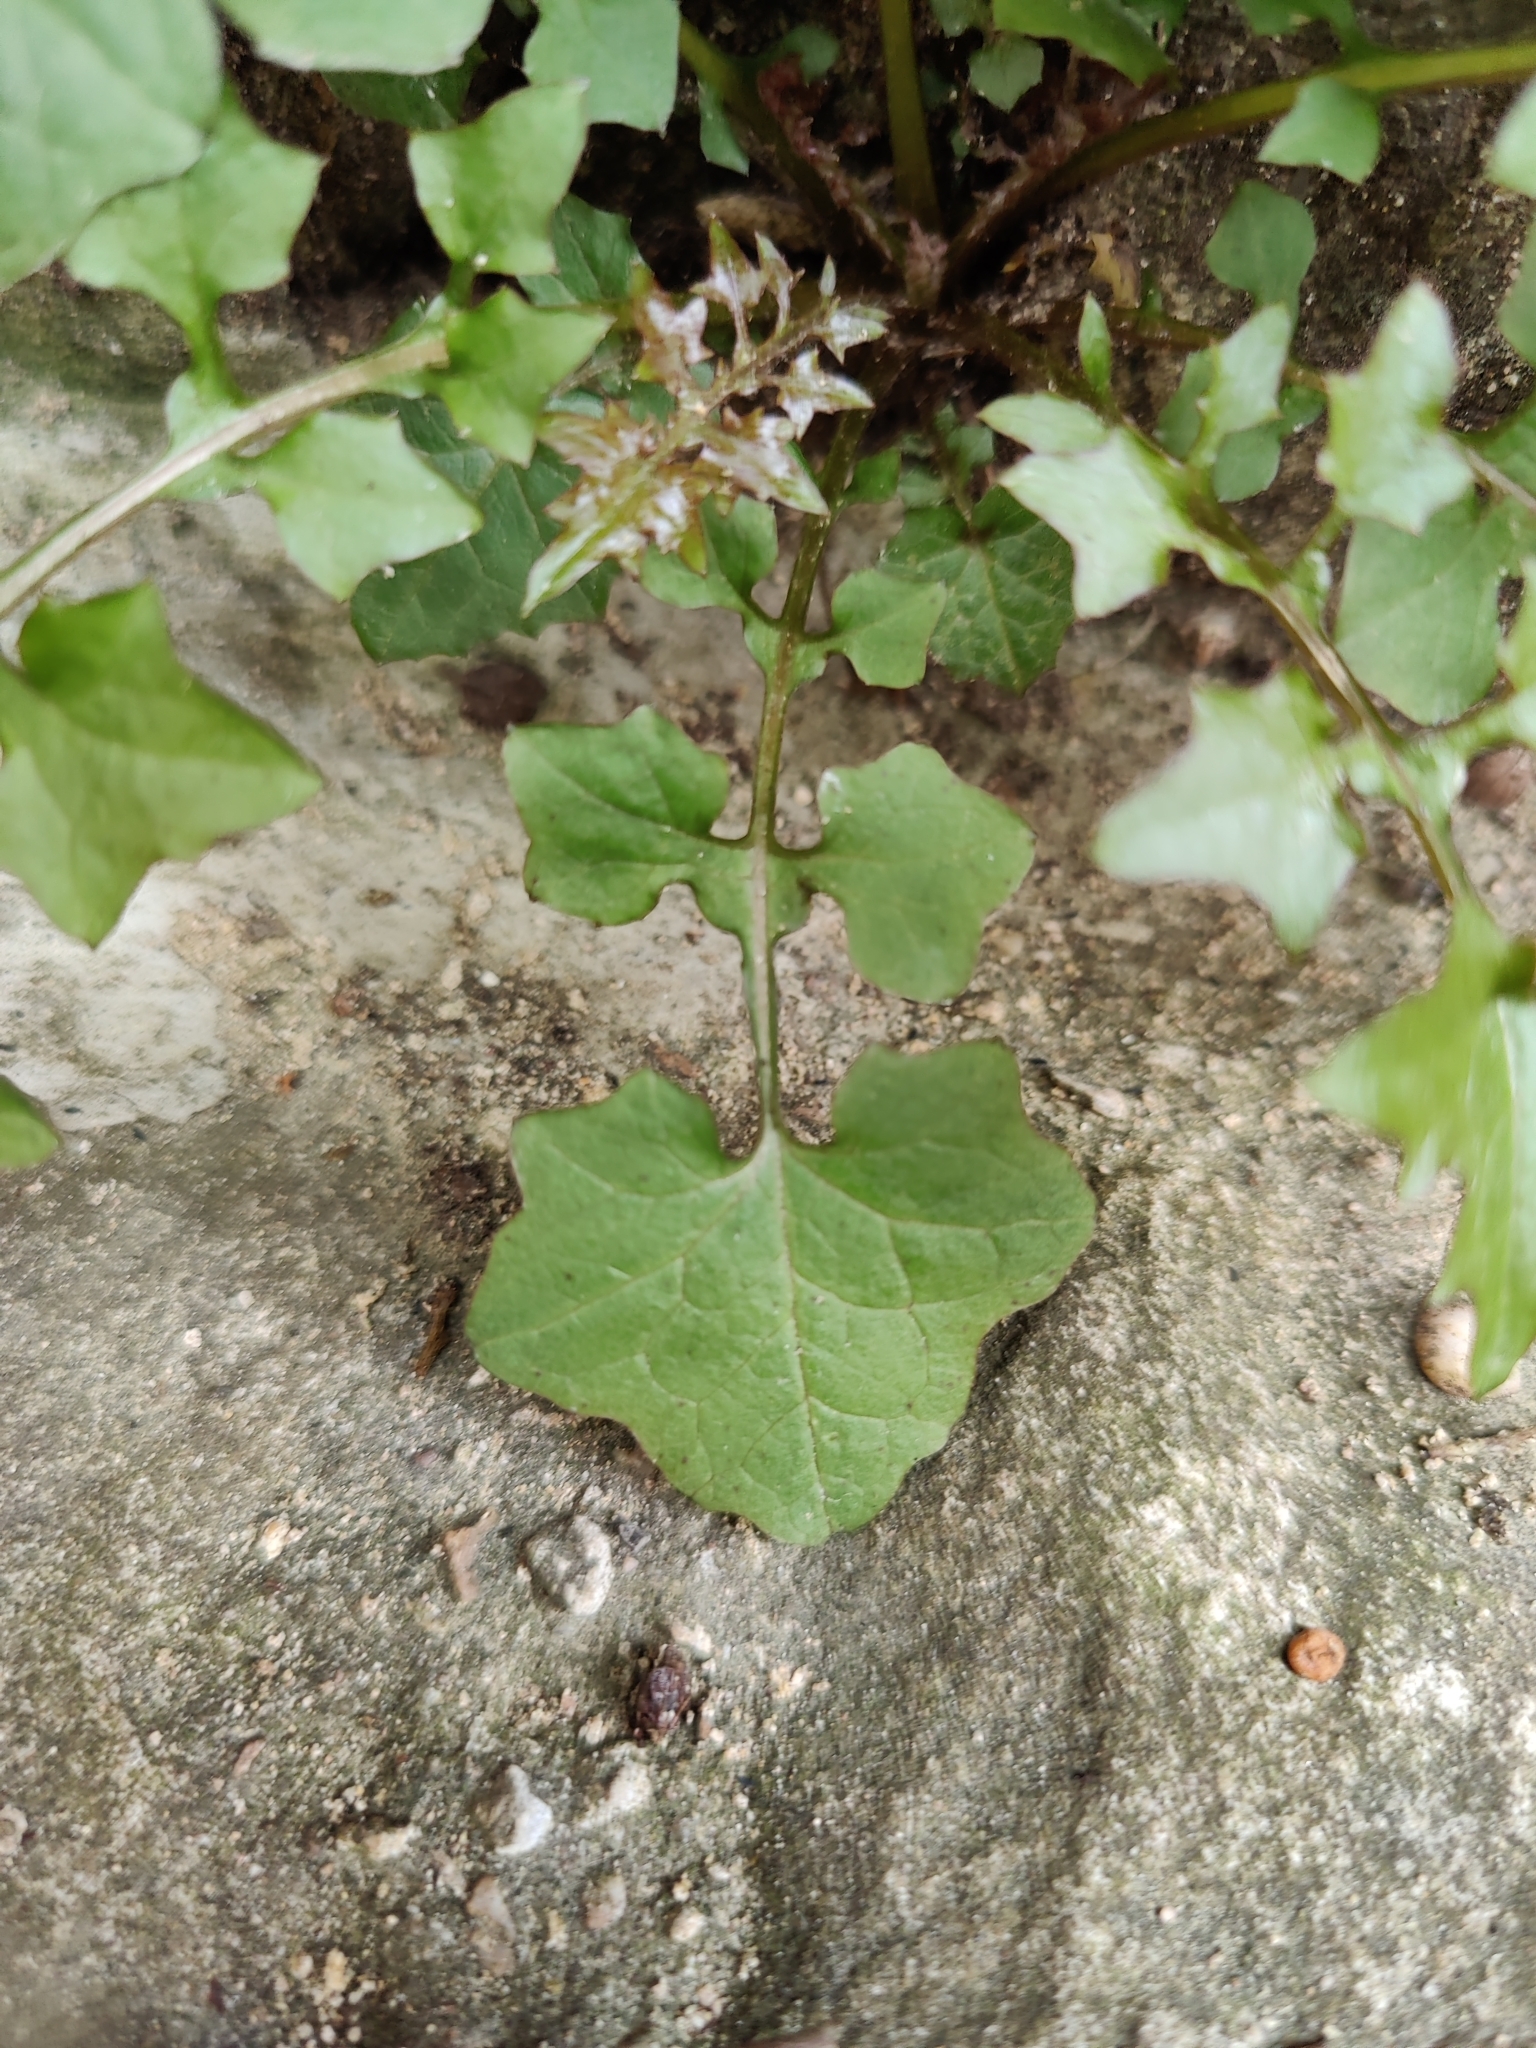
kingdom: Plantae
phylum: Tracheophyta
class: Magnoliopsida
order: Asterales
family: Asteraceae
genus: Mycelis
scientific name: Mycelis muralis
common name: Wall lettuce
